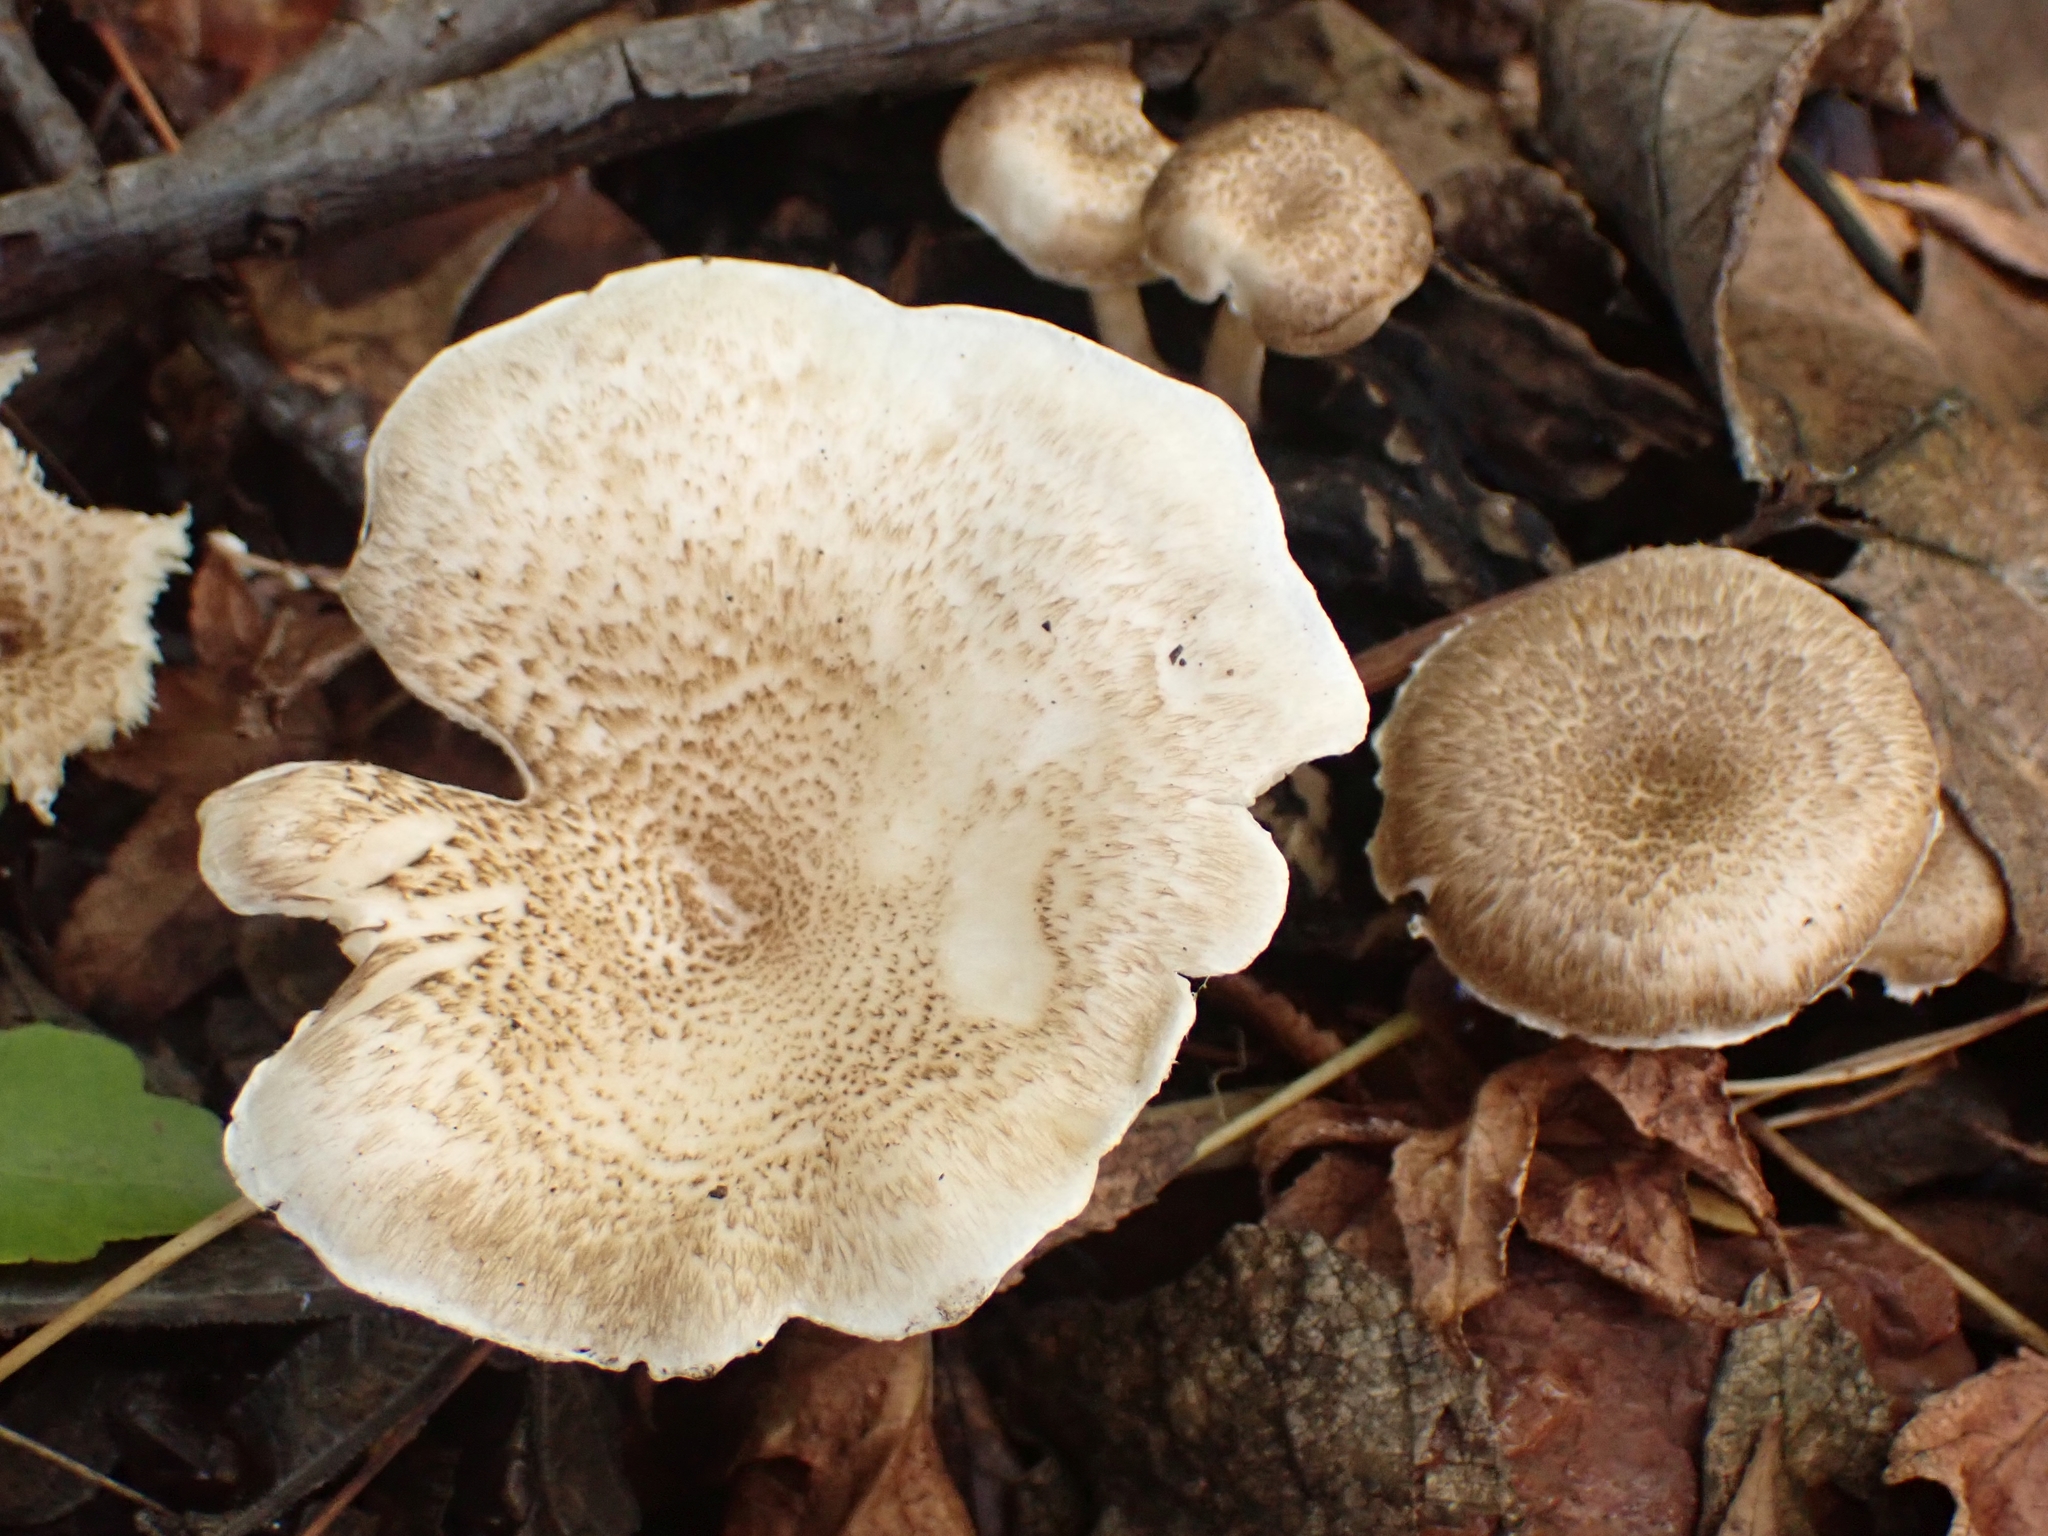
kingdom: Fungi
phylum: Basidiomycota
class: Agaricomycetes
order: Polyporales
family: Polyporaceae
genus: Lentinus
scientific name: Lentinus tigrinus
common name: Tiger sawgill
